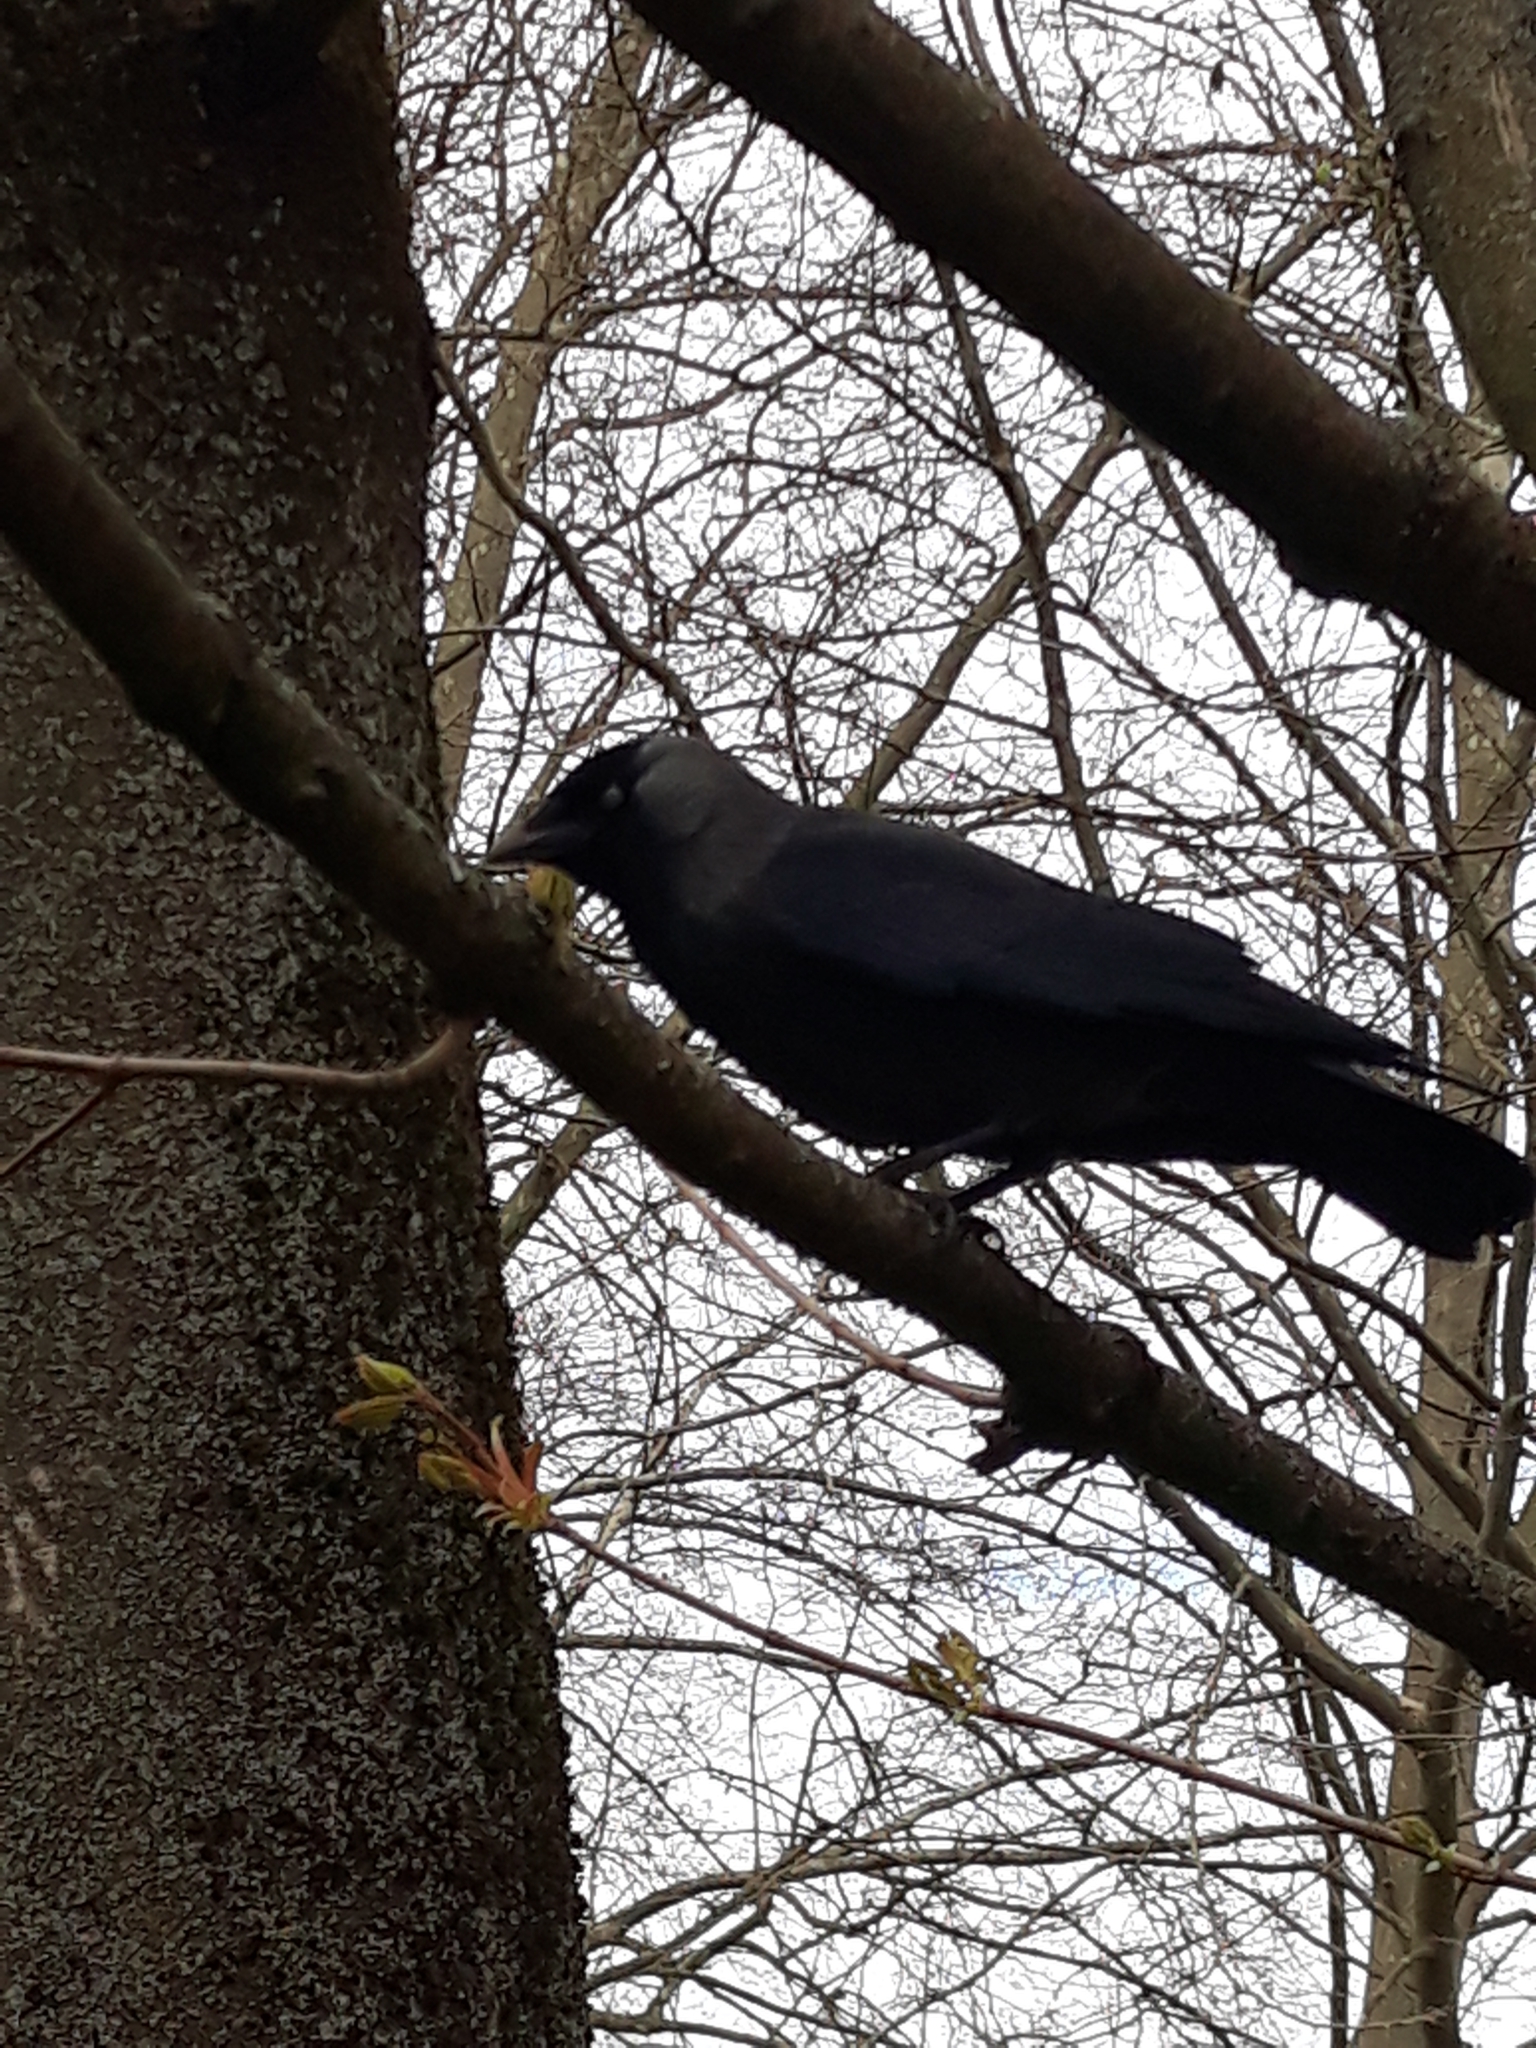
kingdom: Animalia
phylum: Chordata
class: Aves
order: Passeriformes
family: Corvidae
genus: Coloeus
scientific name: Coloeus monedula
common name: Western jackdaw
